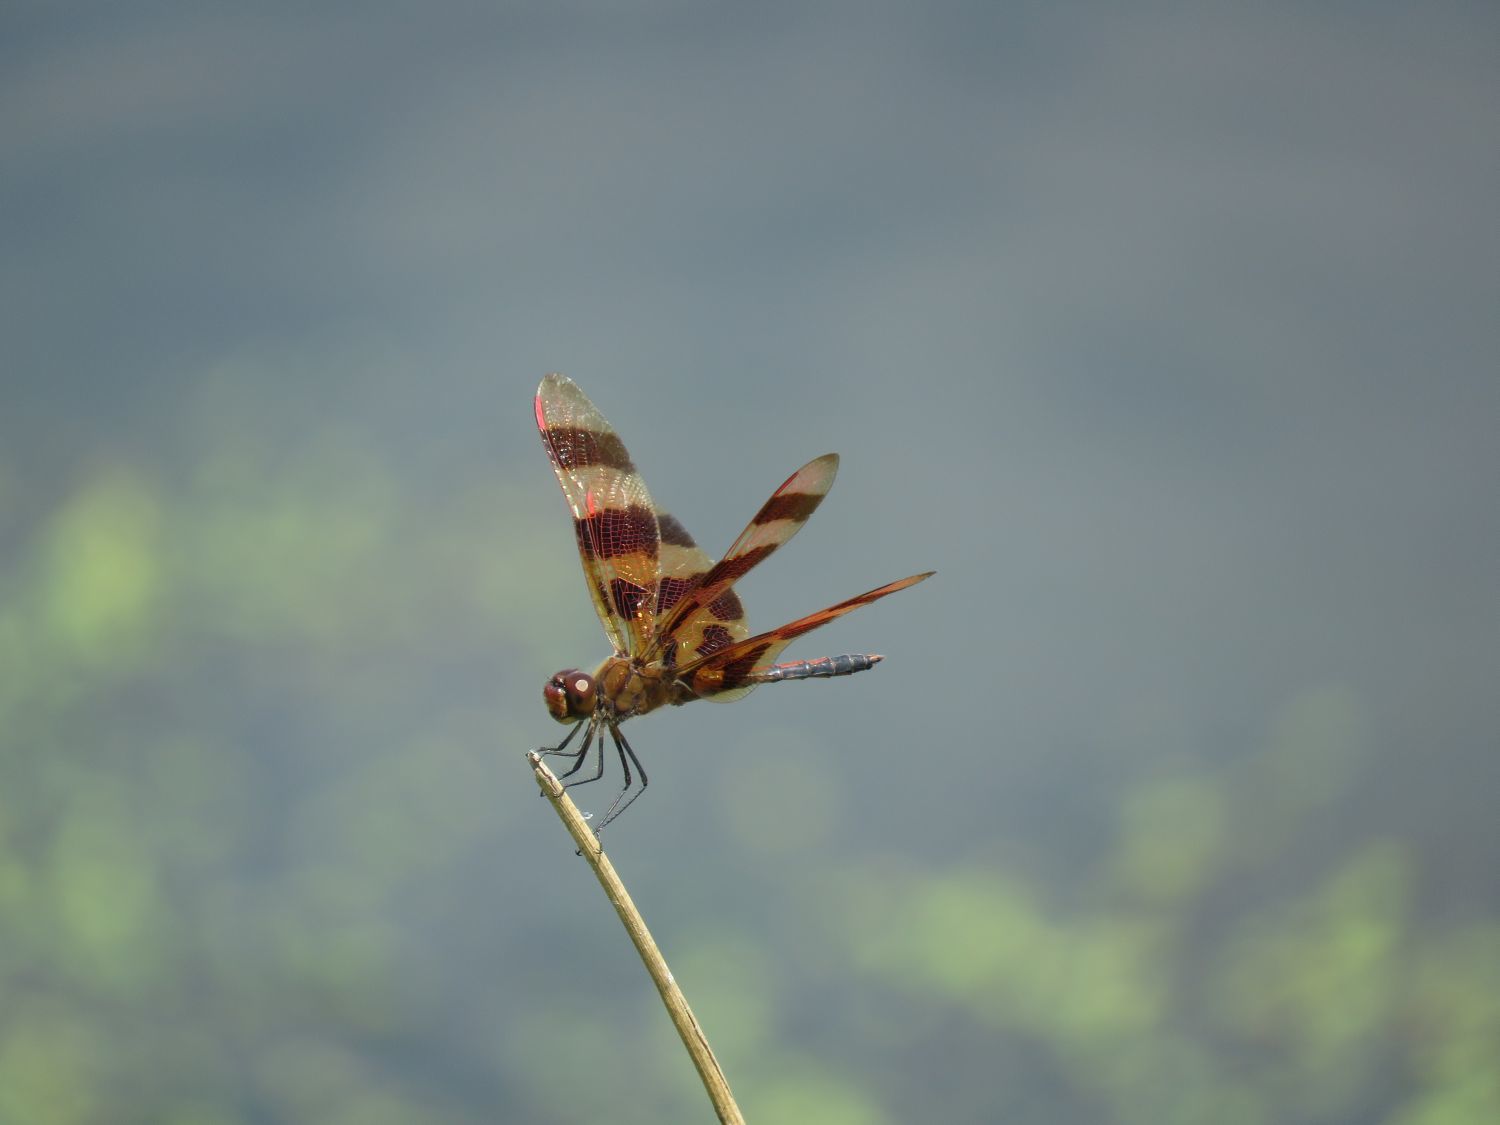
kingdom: Animalia
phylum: Arthropoda
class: Insecta
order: Odonata
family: Libellulidae
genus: Celithemis
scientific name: Celithemis eponina
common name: Halloween pennant
